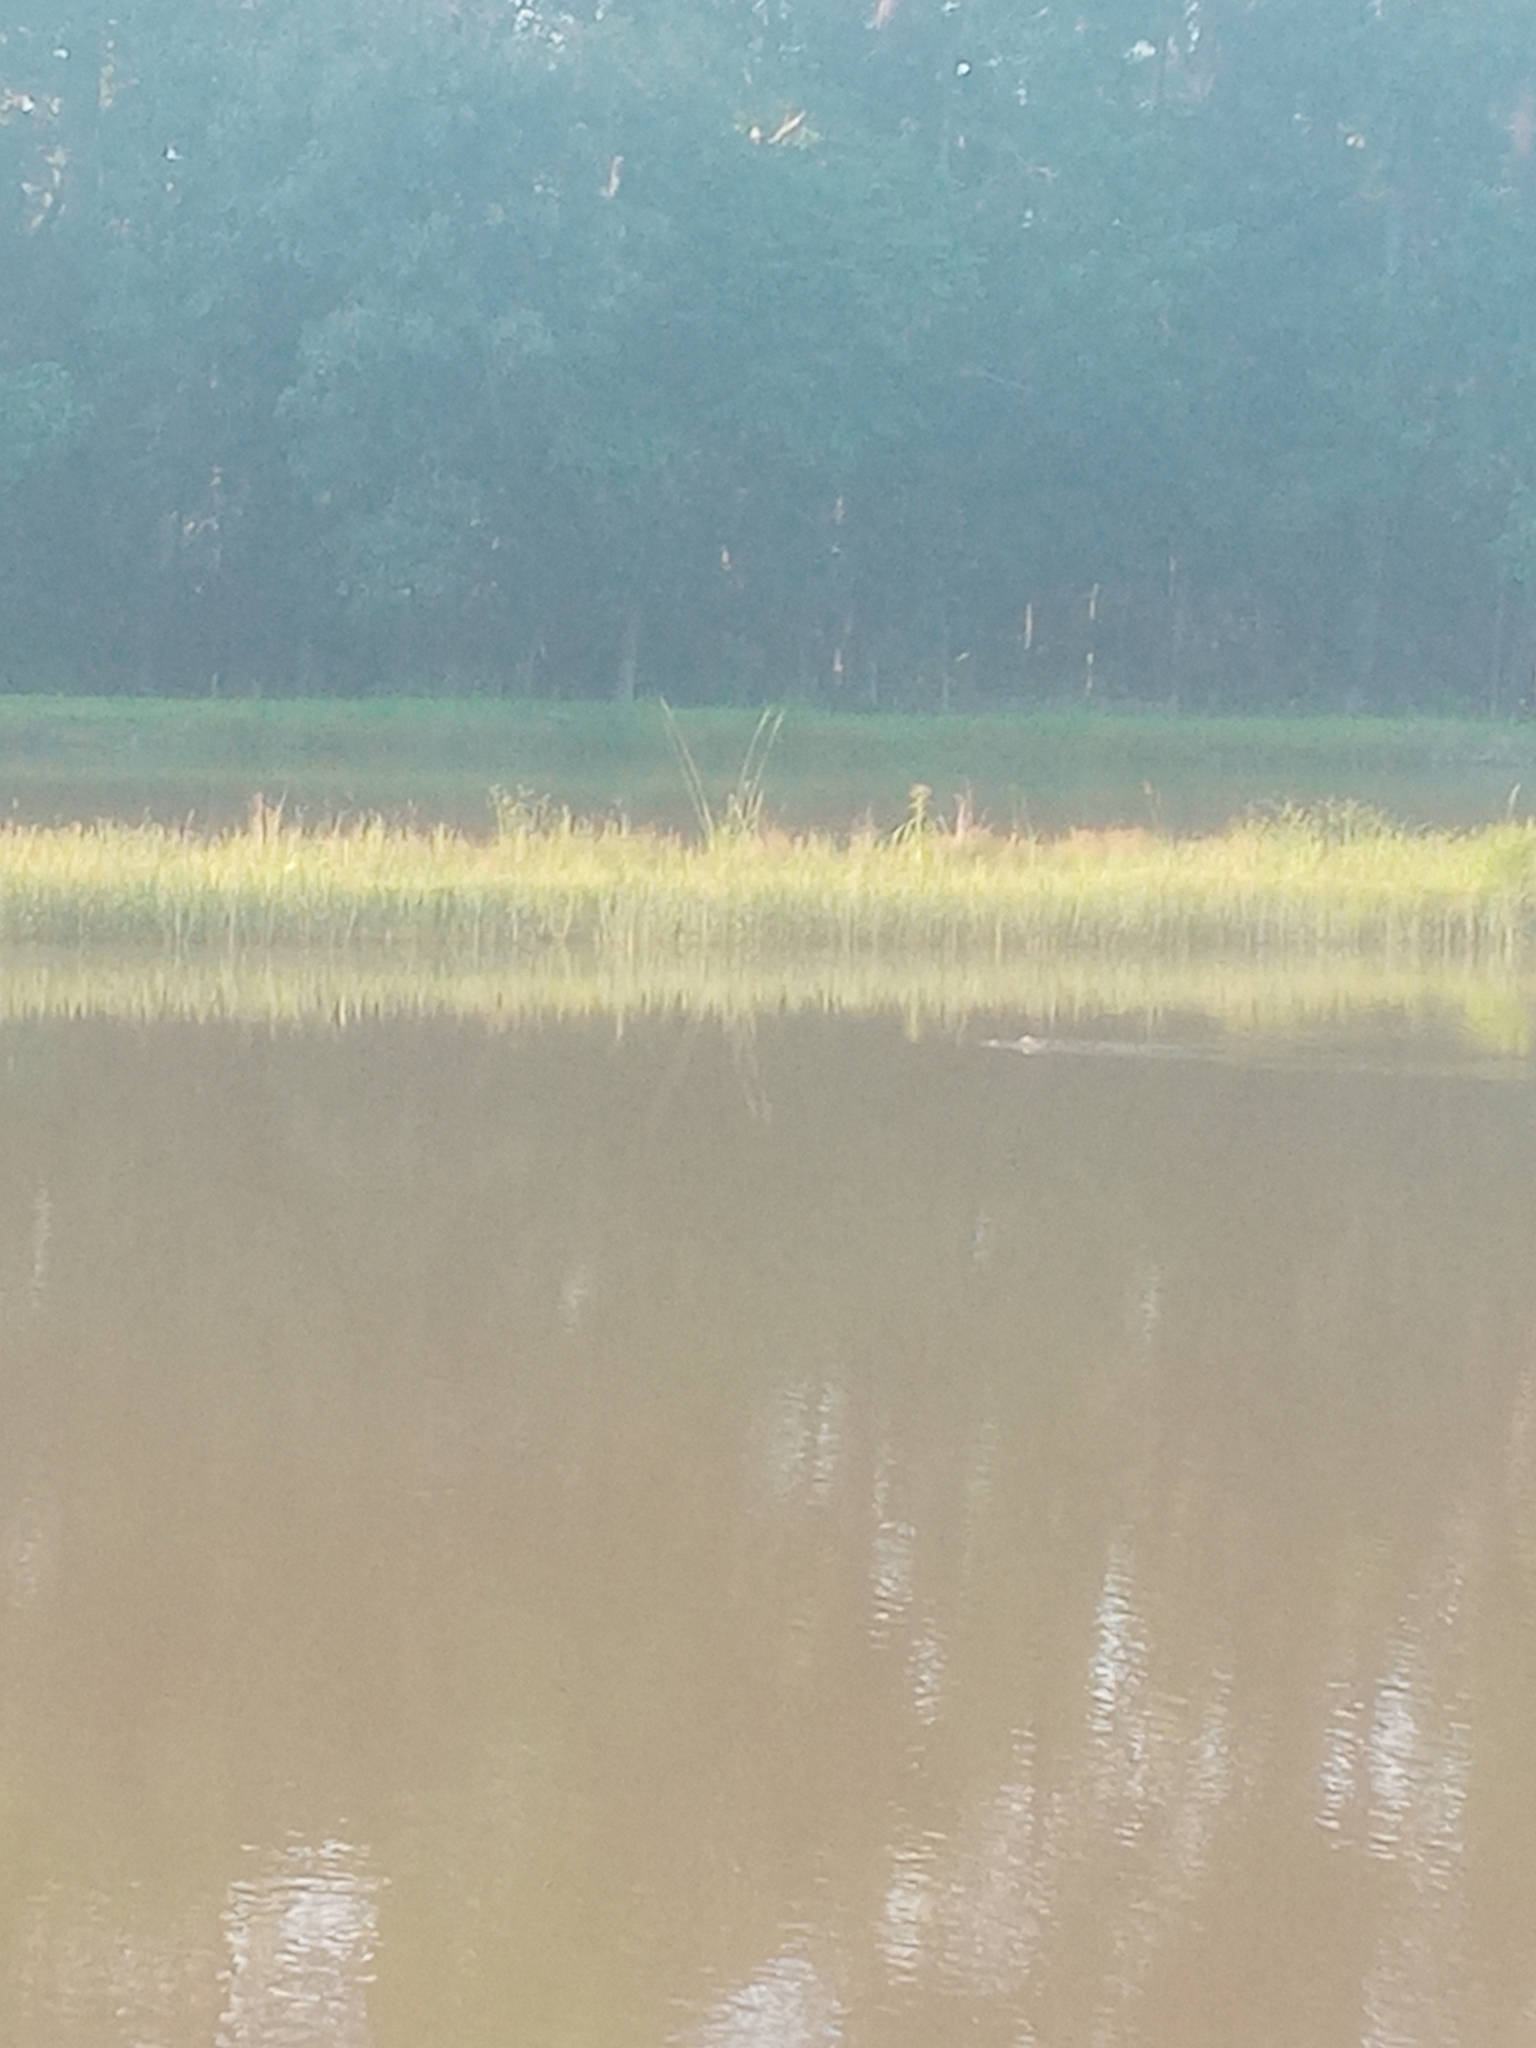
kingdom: Animalia
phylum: Chordata
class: Crocodylia
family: Alligatoridae
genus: Alligator
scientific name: Alligator mississippiensis
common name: American alligator
